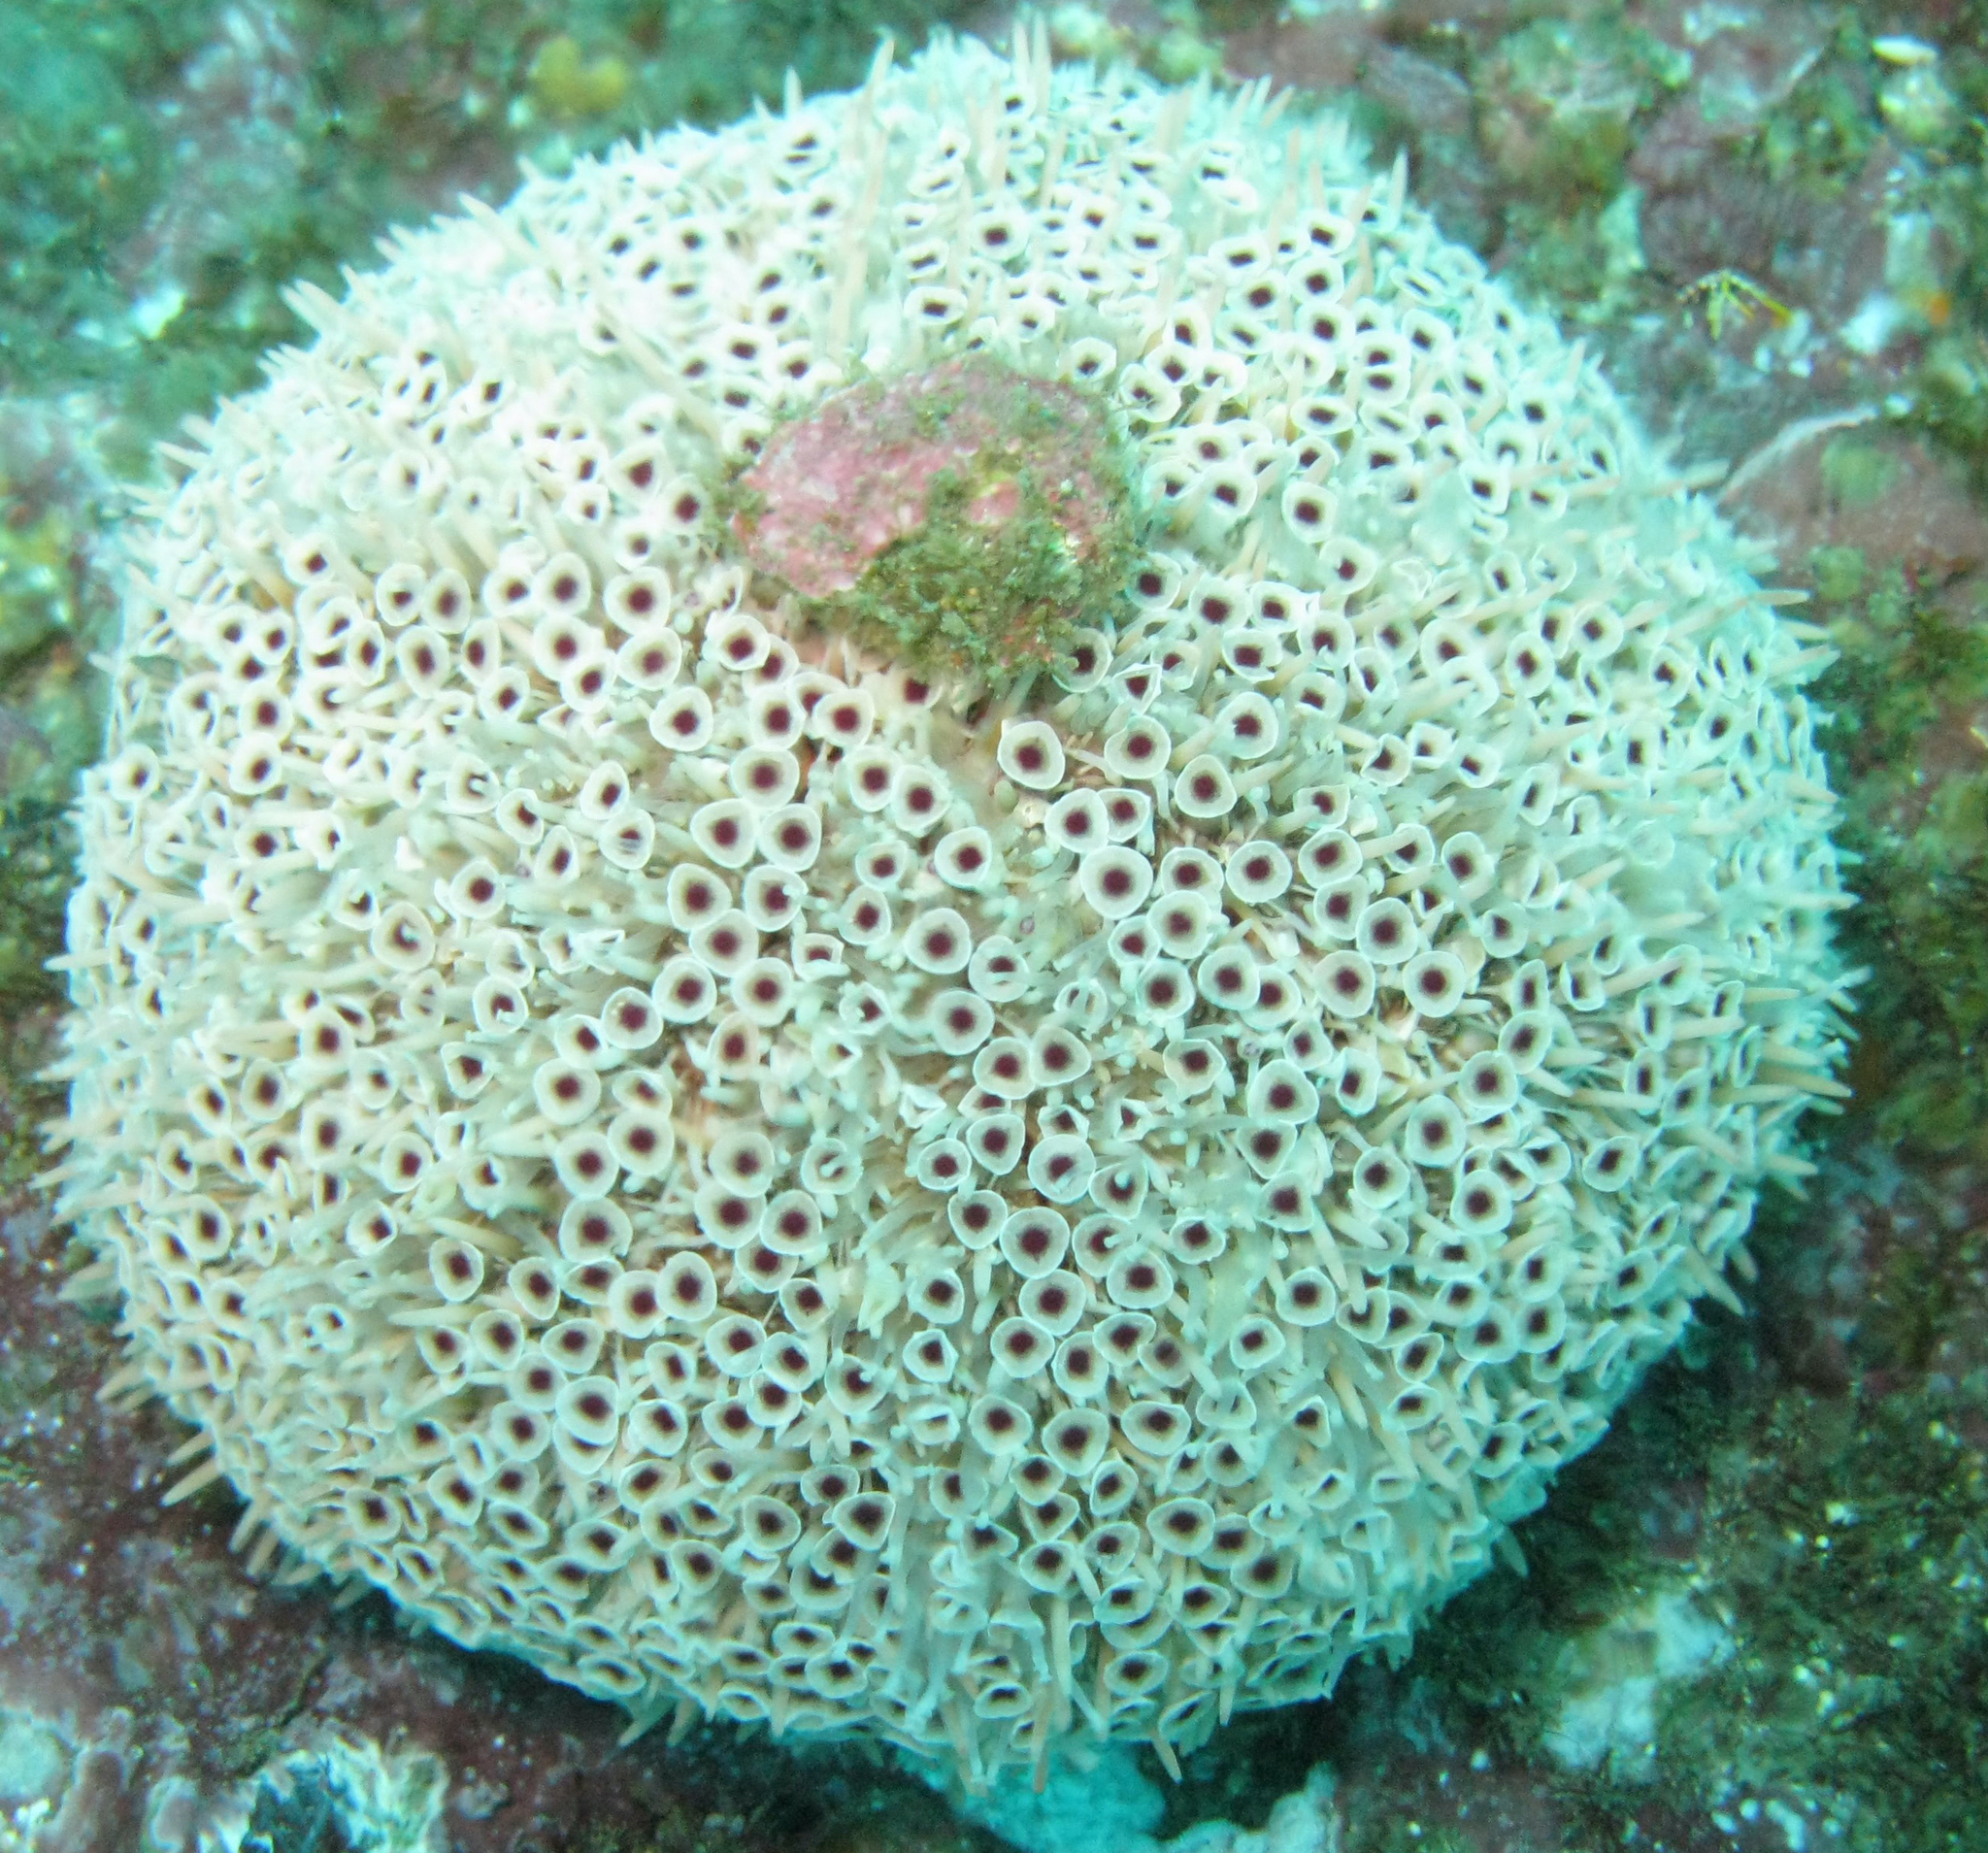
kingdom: Animalia
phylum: Echinodermata
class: Echinoidea
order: Camarodonta
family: Toxopneustidae
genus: Toxopneustes
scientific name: Toxopneustes roseus
